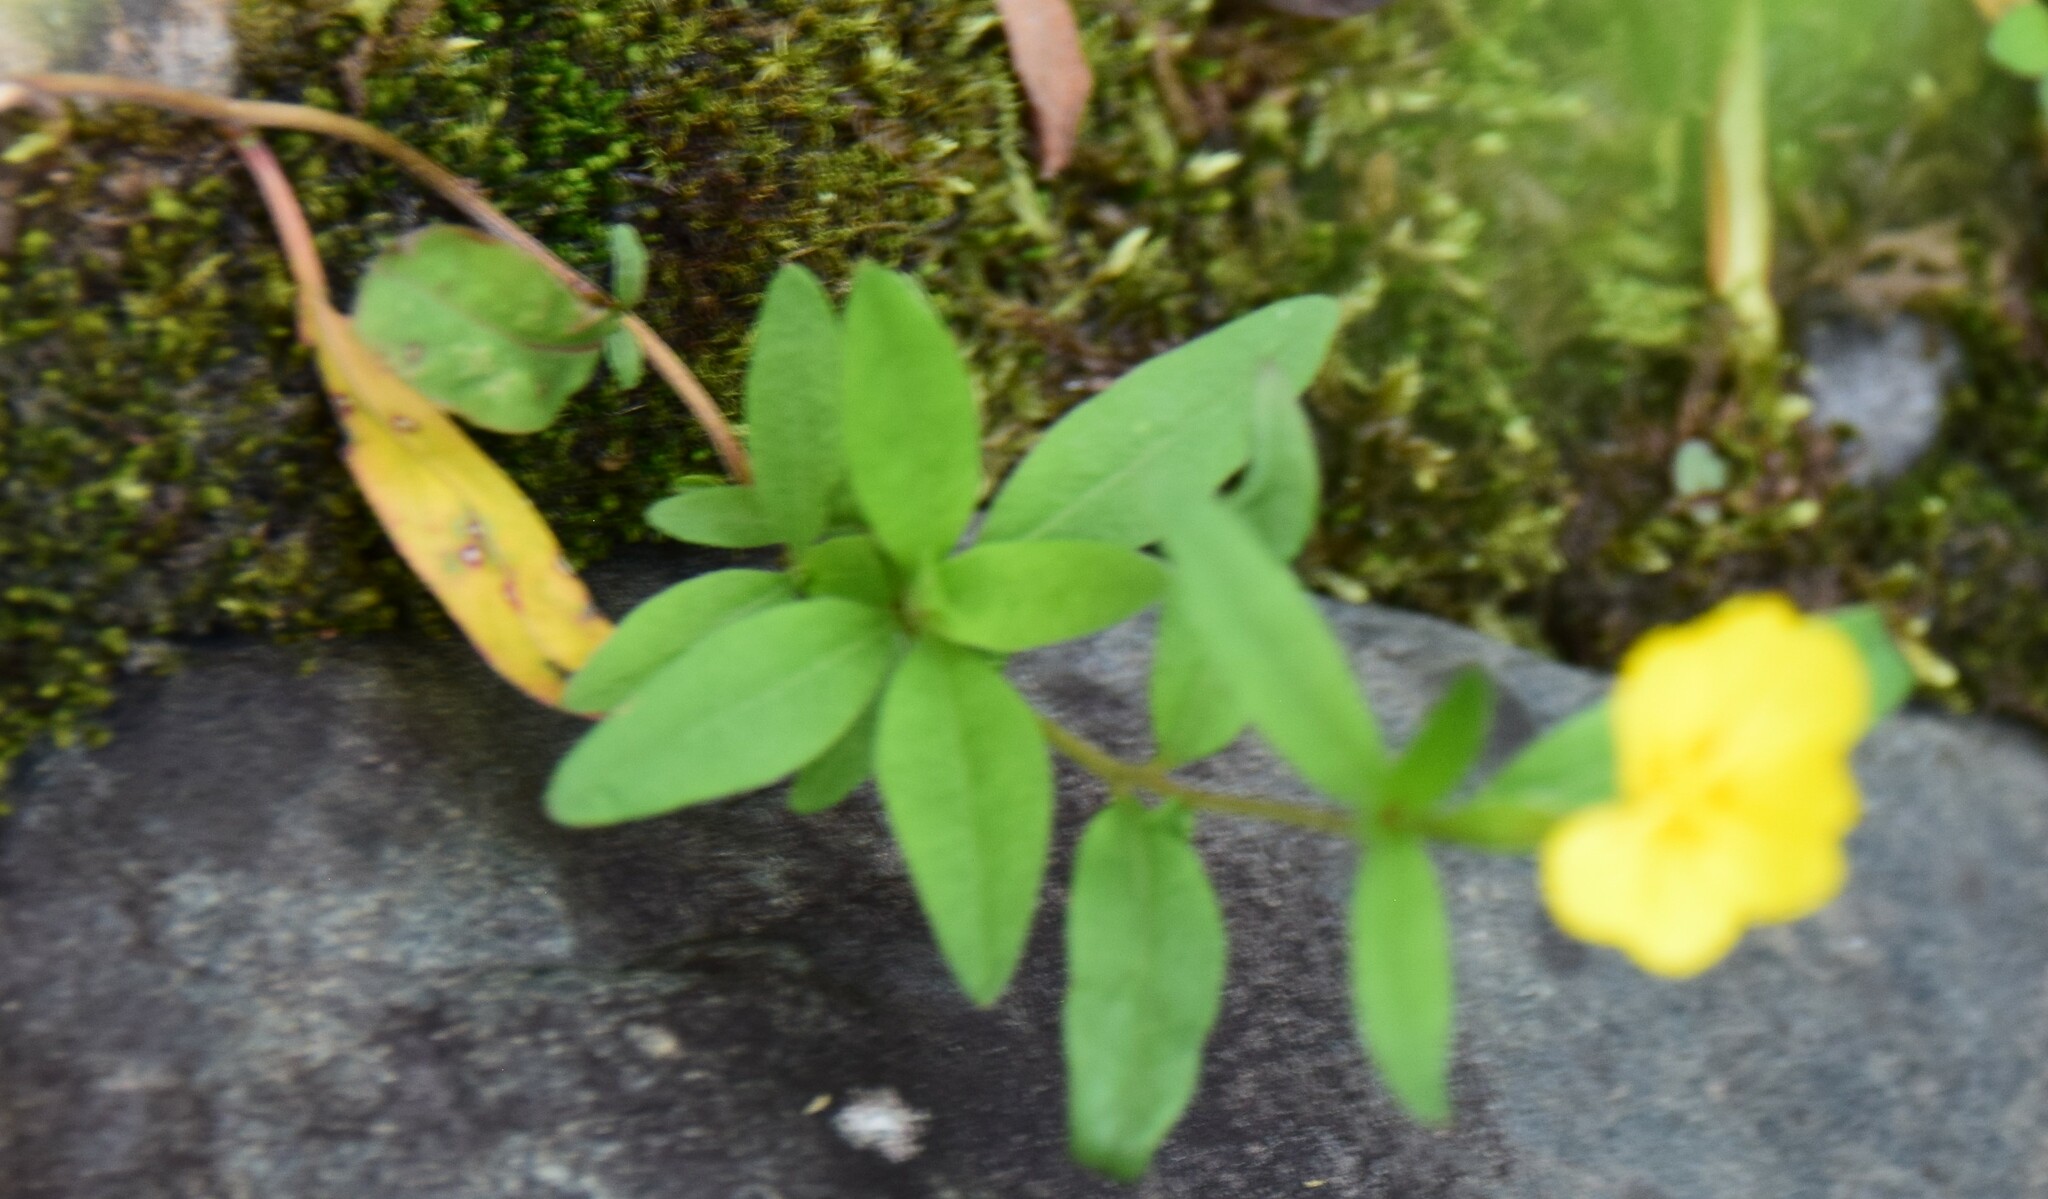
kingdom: Plantae
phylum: Tracheophyta
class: Magnoliopsida
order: Myrtales
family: Onagraceae
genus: Oenothera
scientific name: Oenothera perennis
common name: Small sundrops
